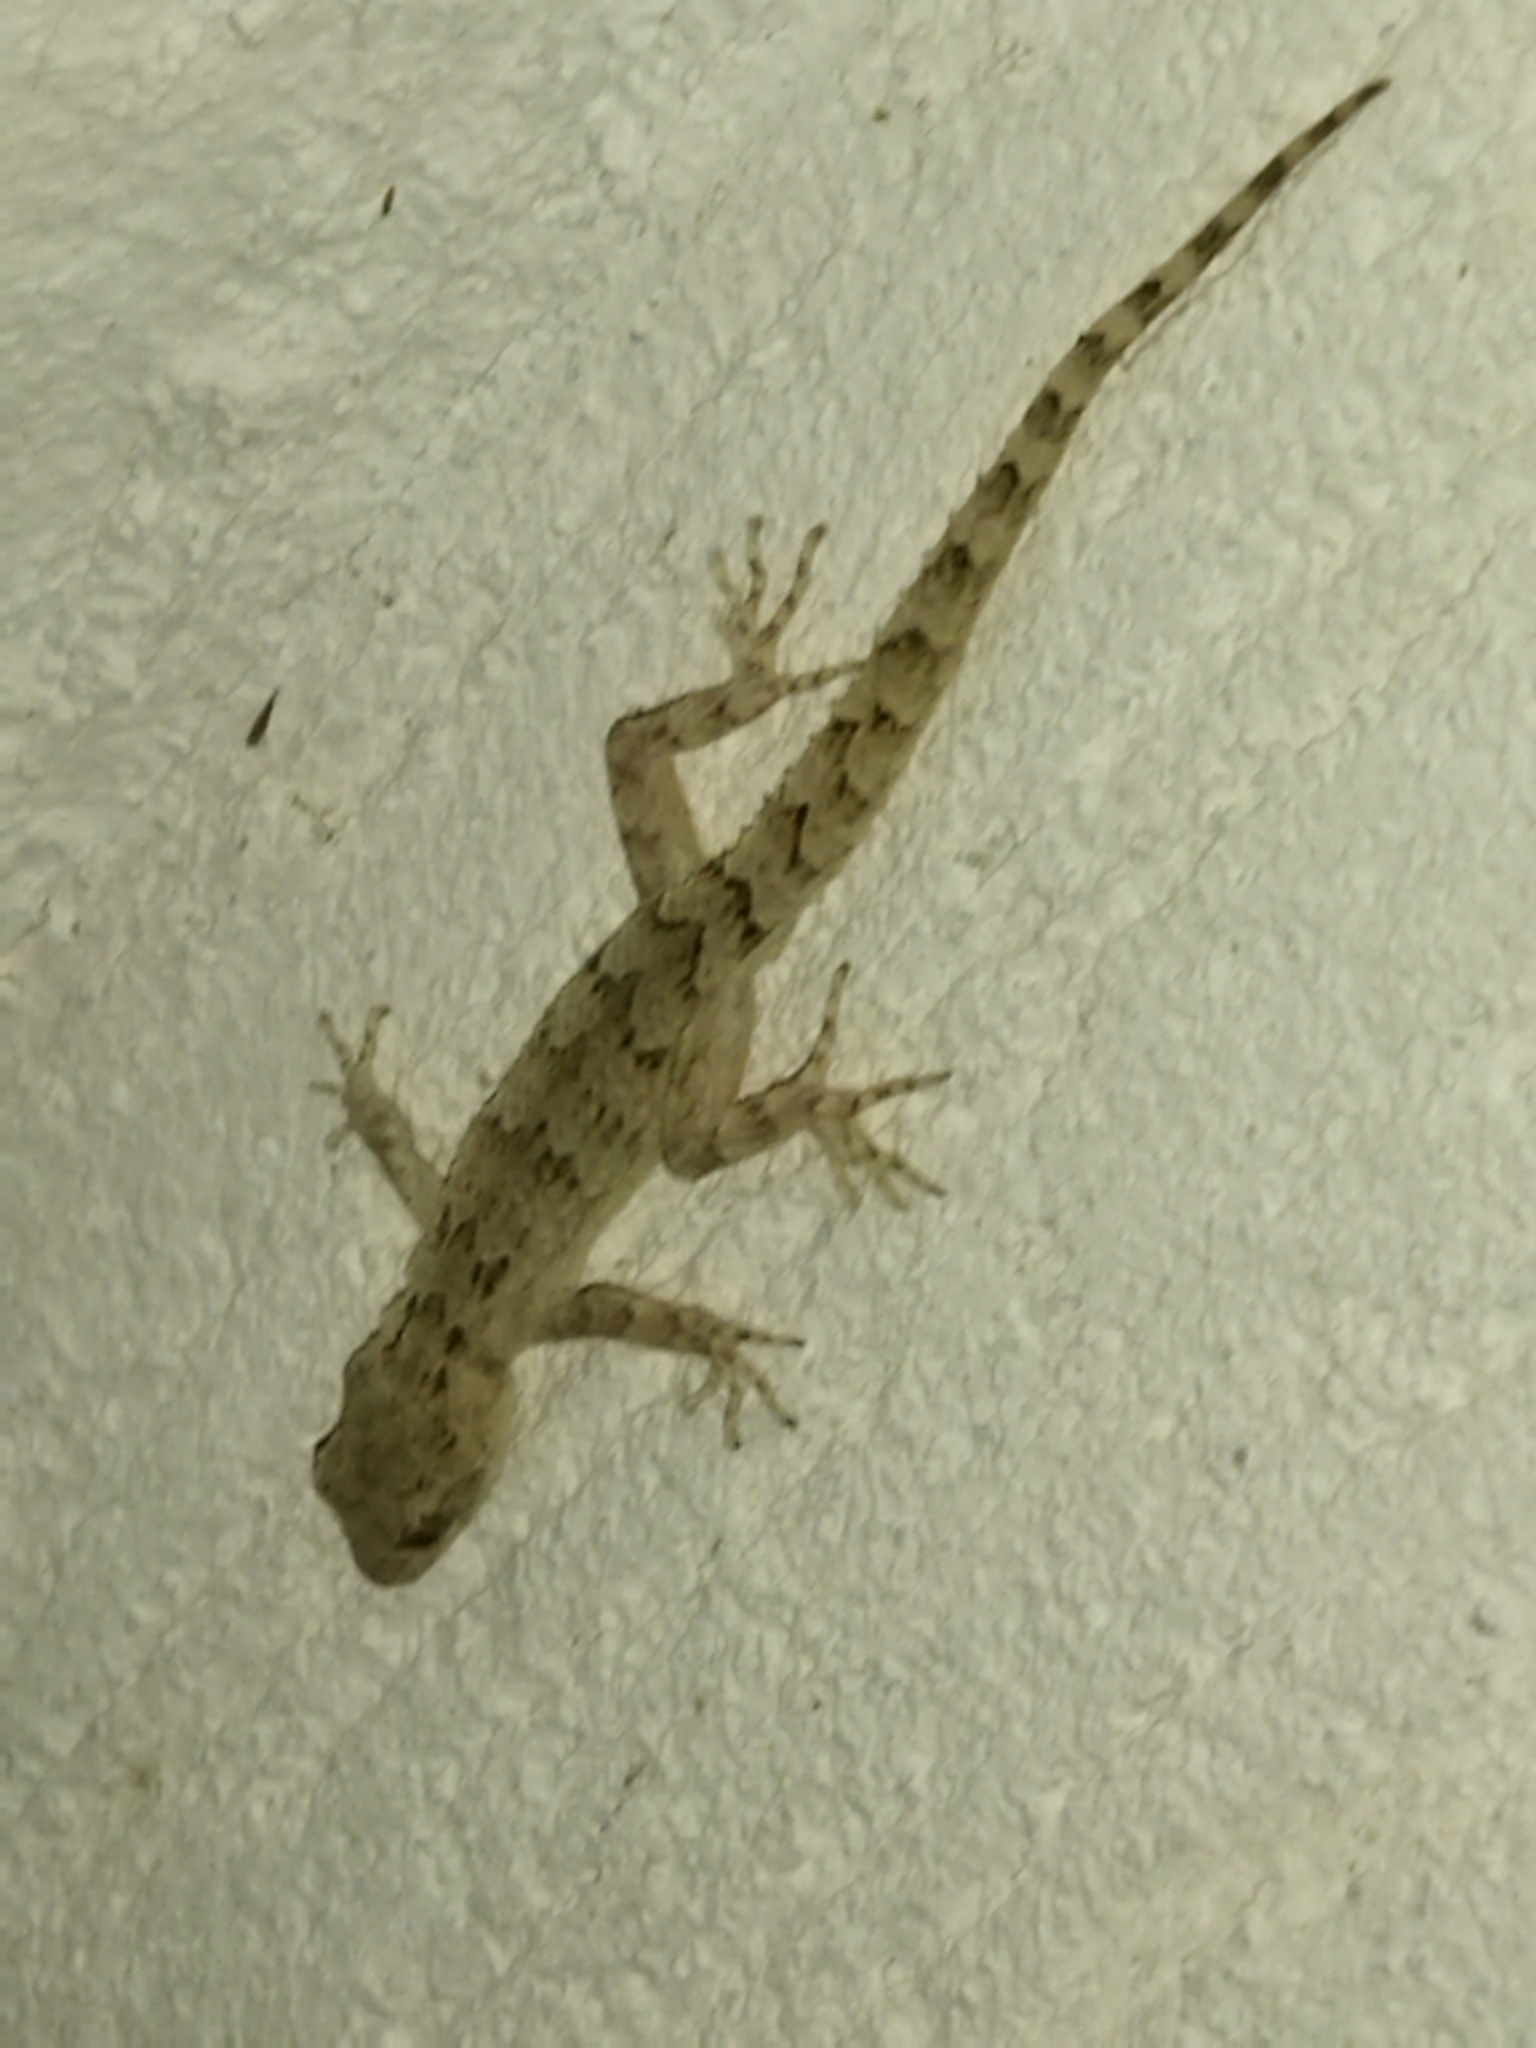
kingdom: Animalia
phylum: Chordata
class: Squamata
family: Gekkonidae
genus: Mediodactylus
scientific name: Mediodactylus kotschyi
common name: Kotschy's gecko
